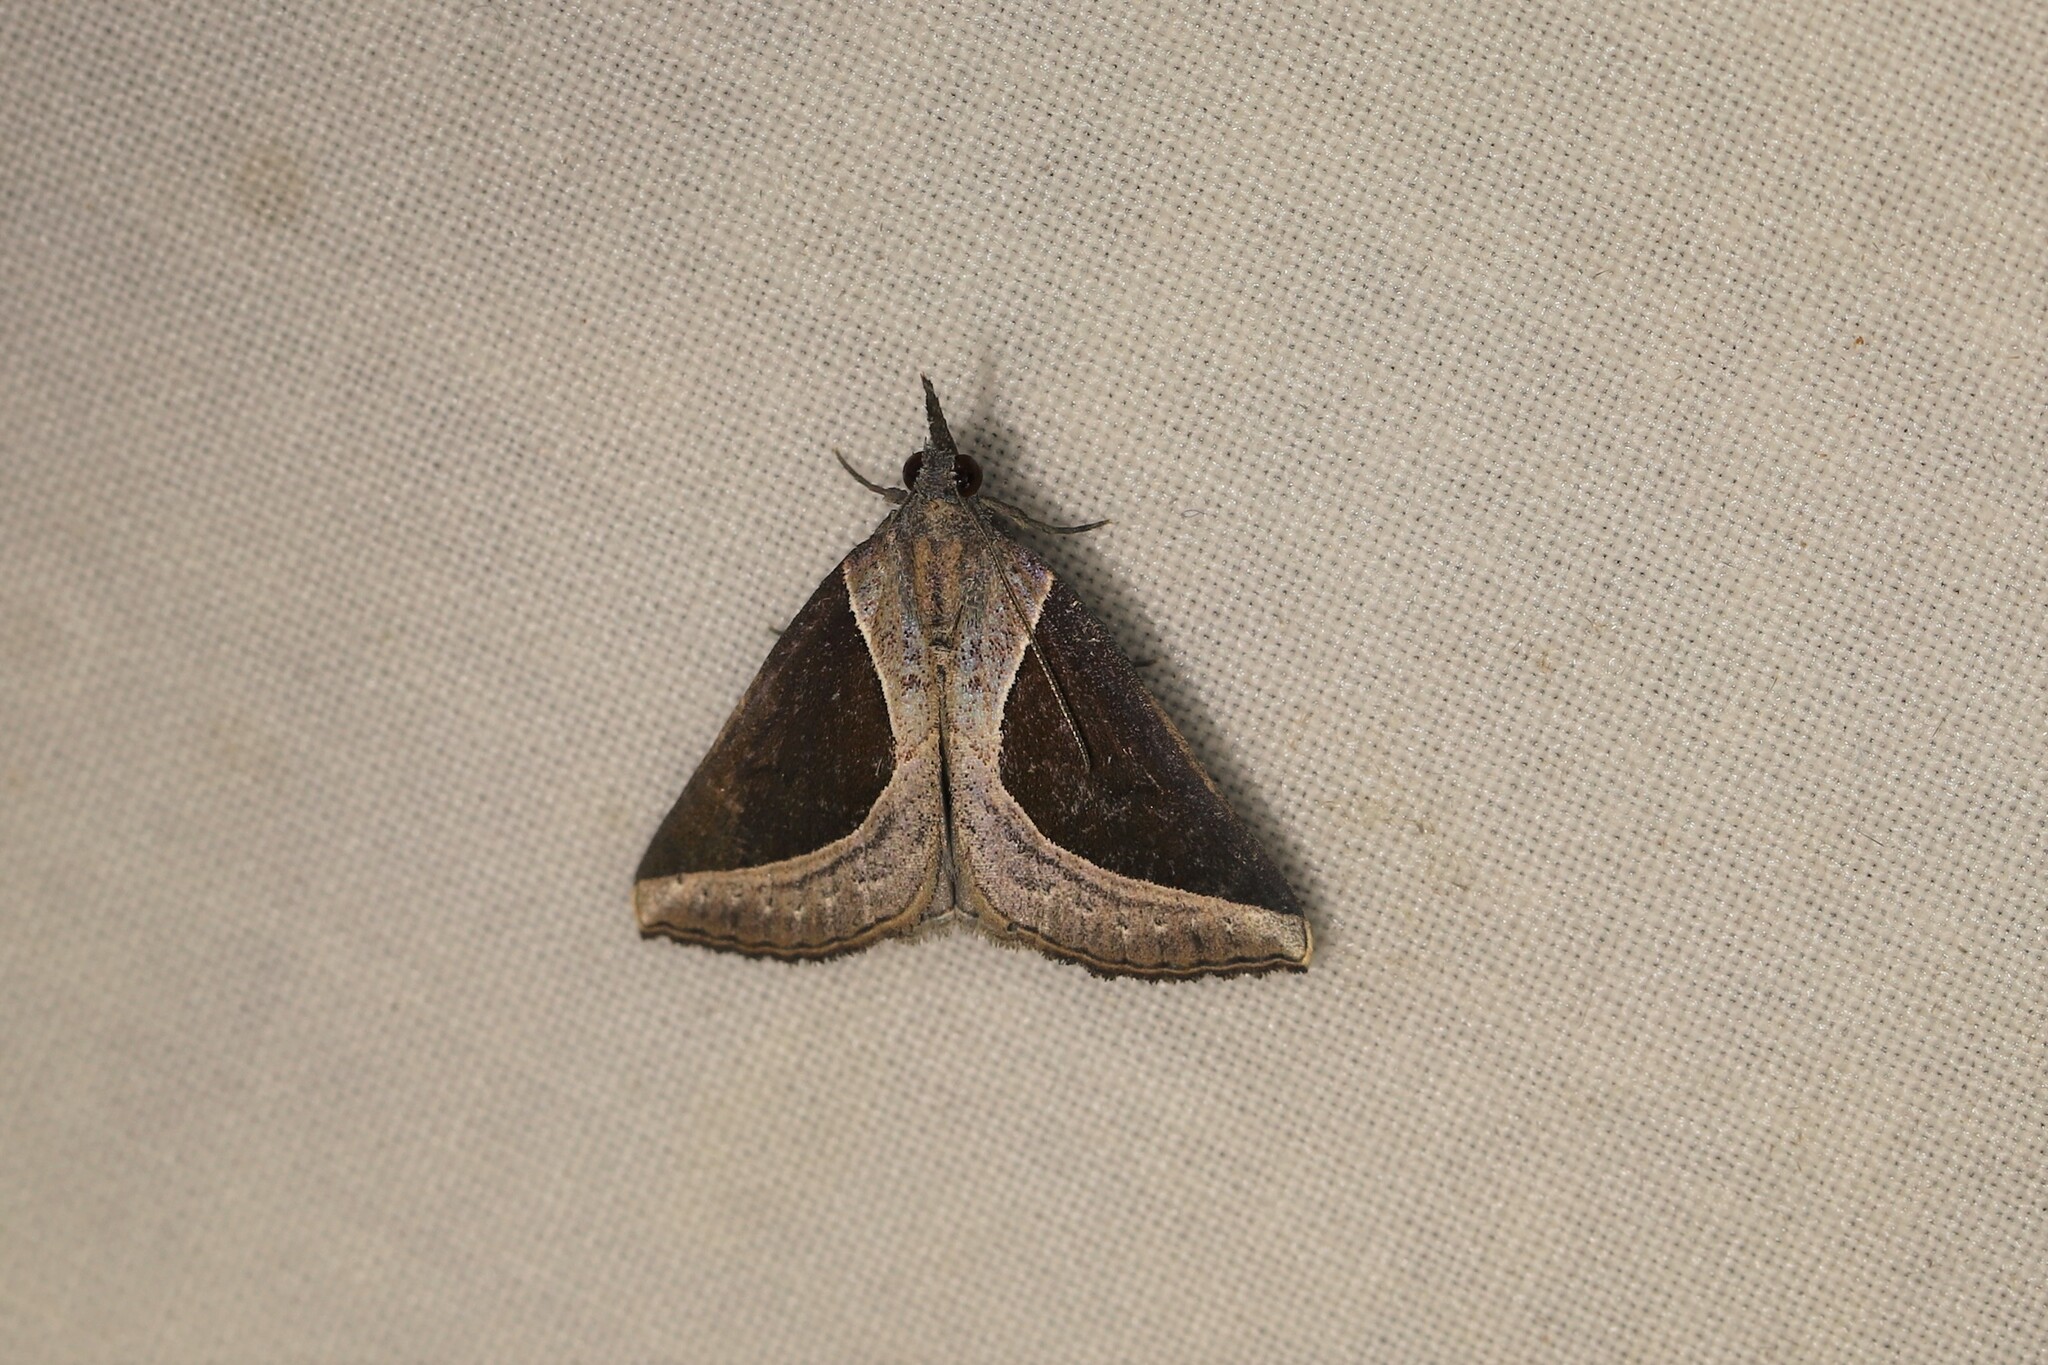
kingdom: Animalia
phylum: Arthropoda
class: Insecta
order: Lepidoptera
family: Erebidae
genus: Hypena
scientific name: Hypena
